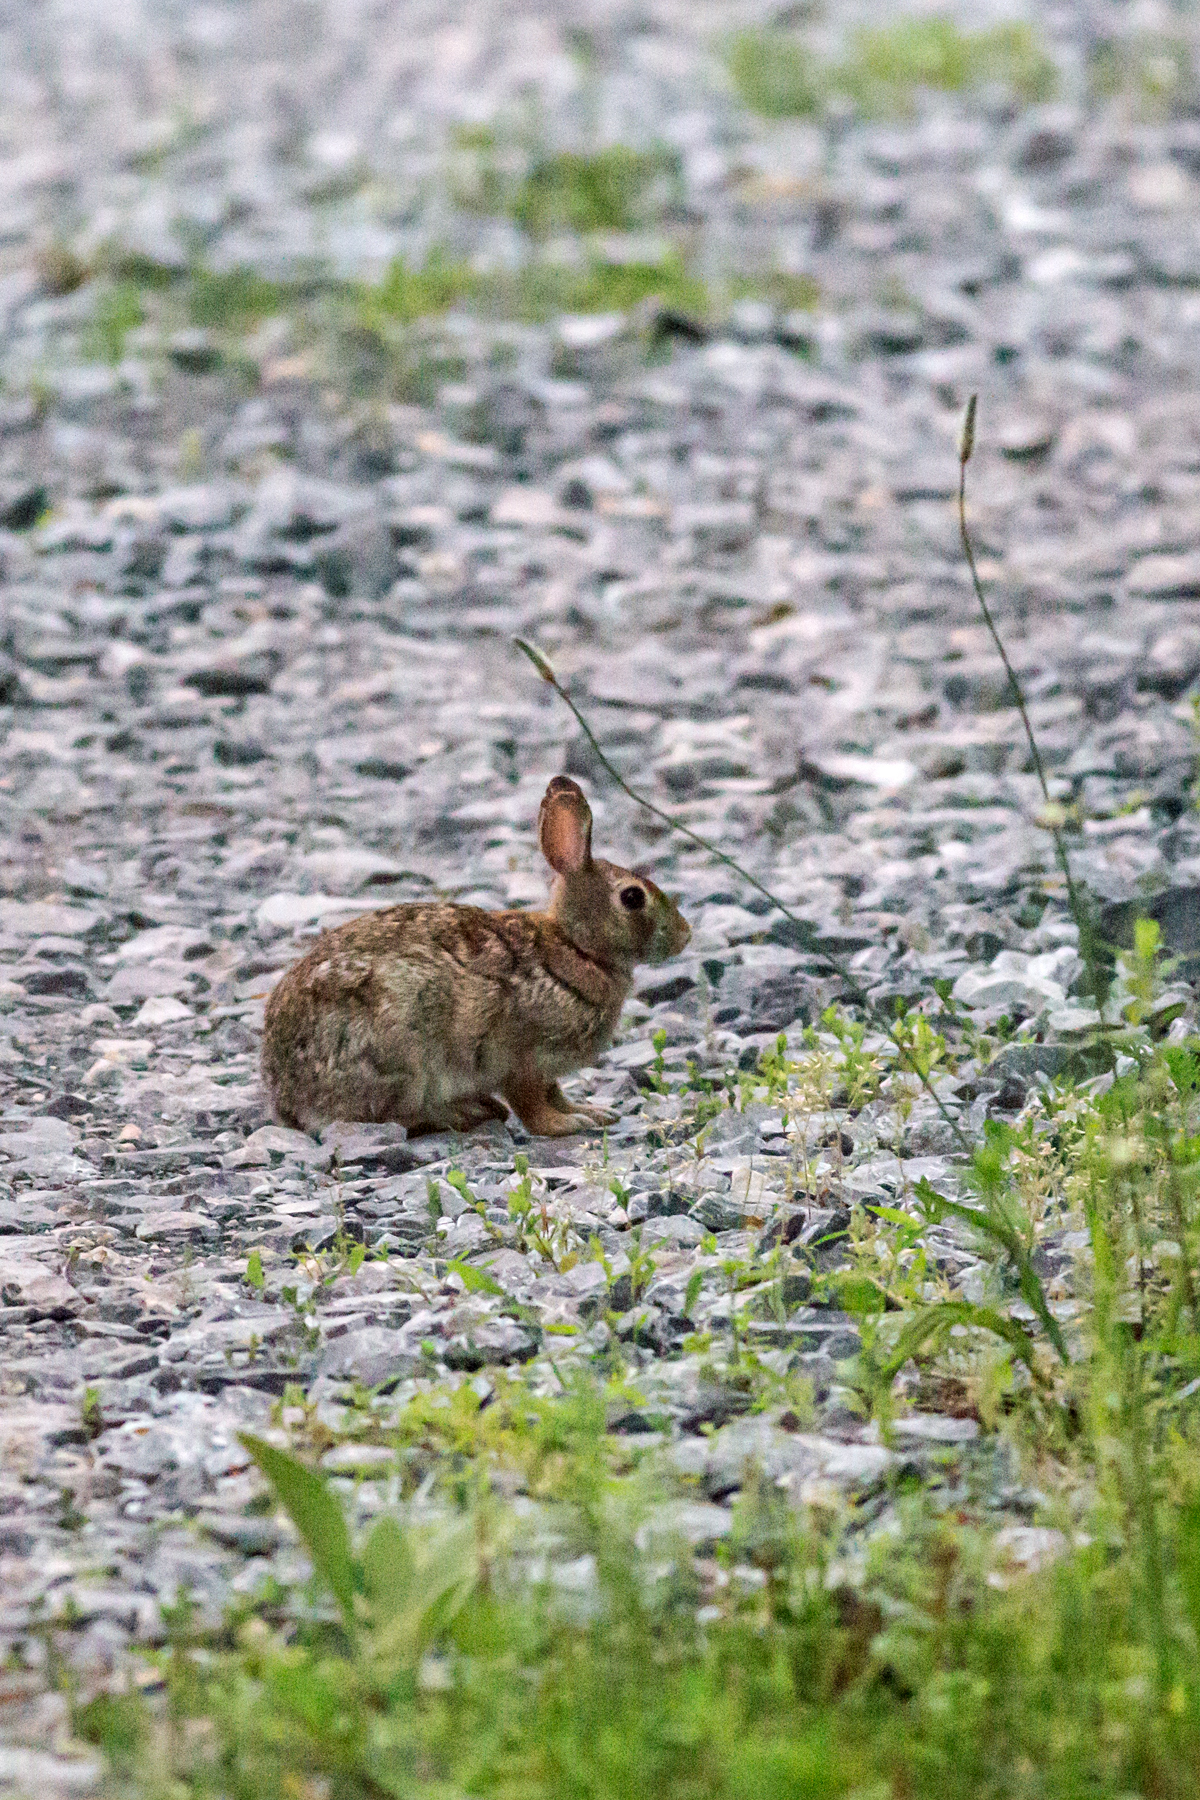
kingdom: Animalia
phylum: Chordata
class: Mammalia
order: Lagomorpha
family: Leporidae
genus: Sylvilagus
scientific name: Sylvilagus floridanus
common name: Eastern cottontail
